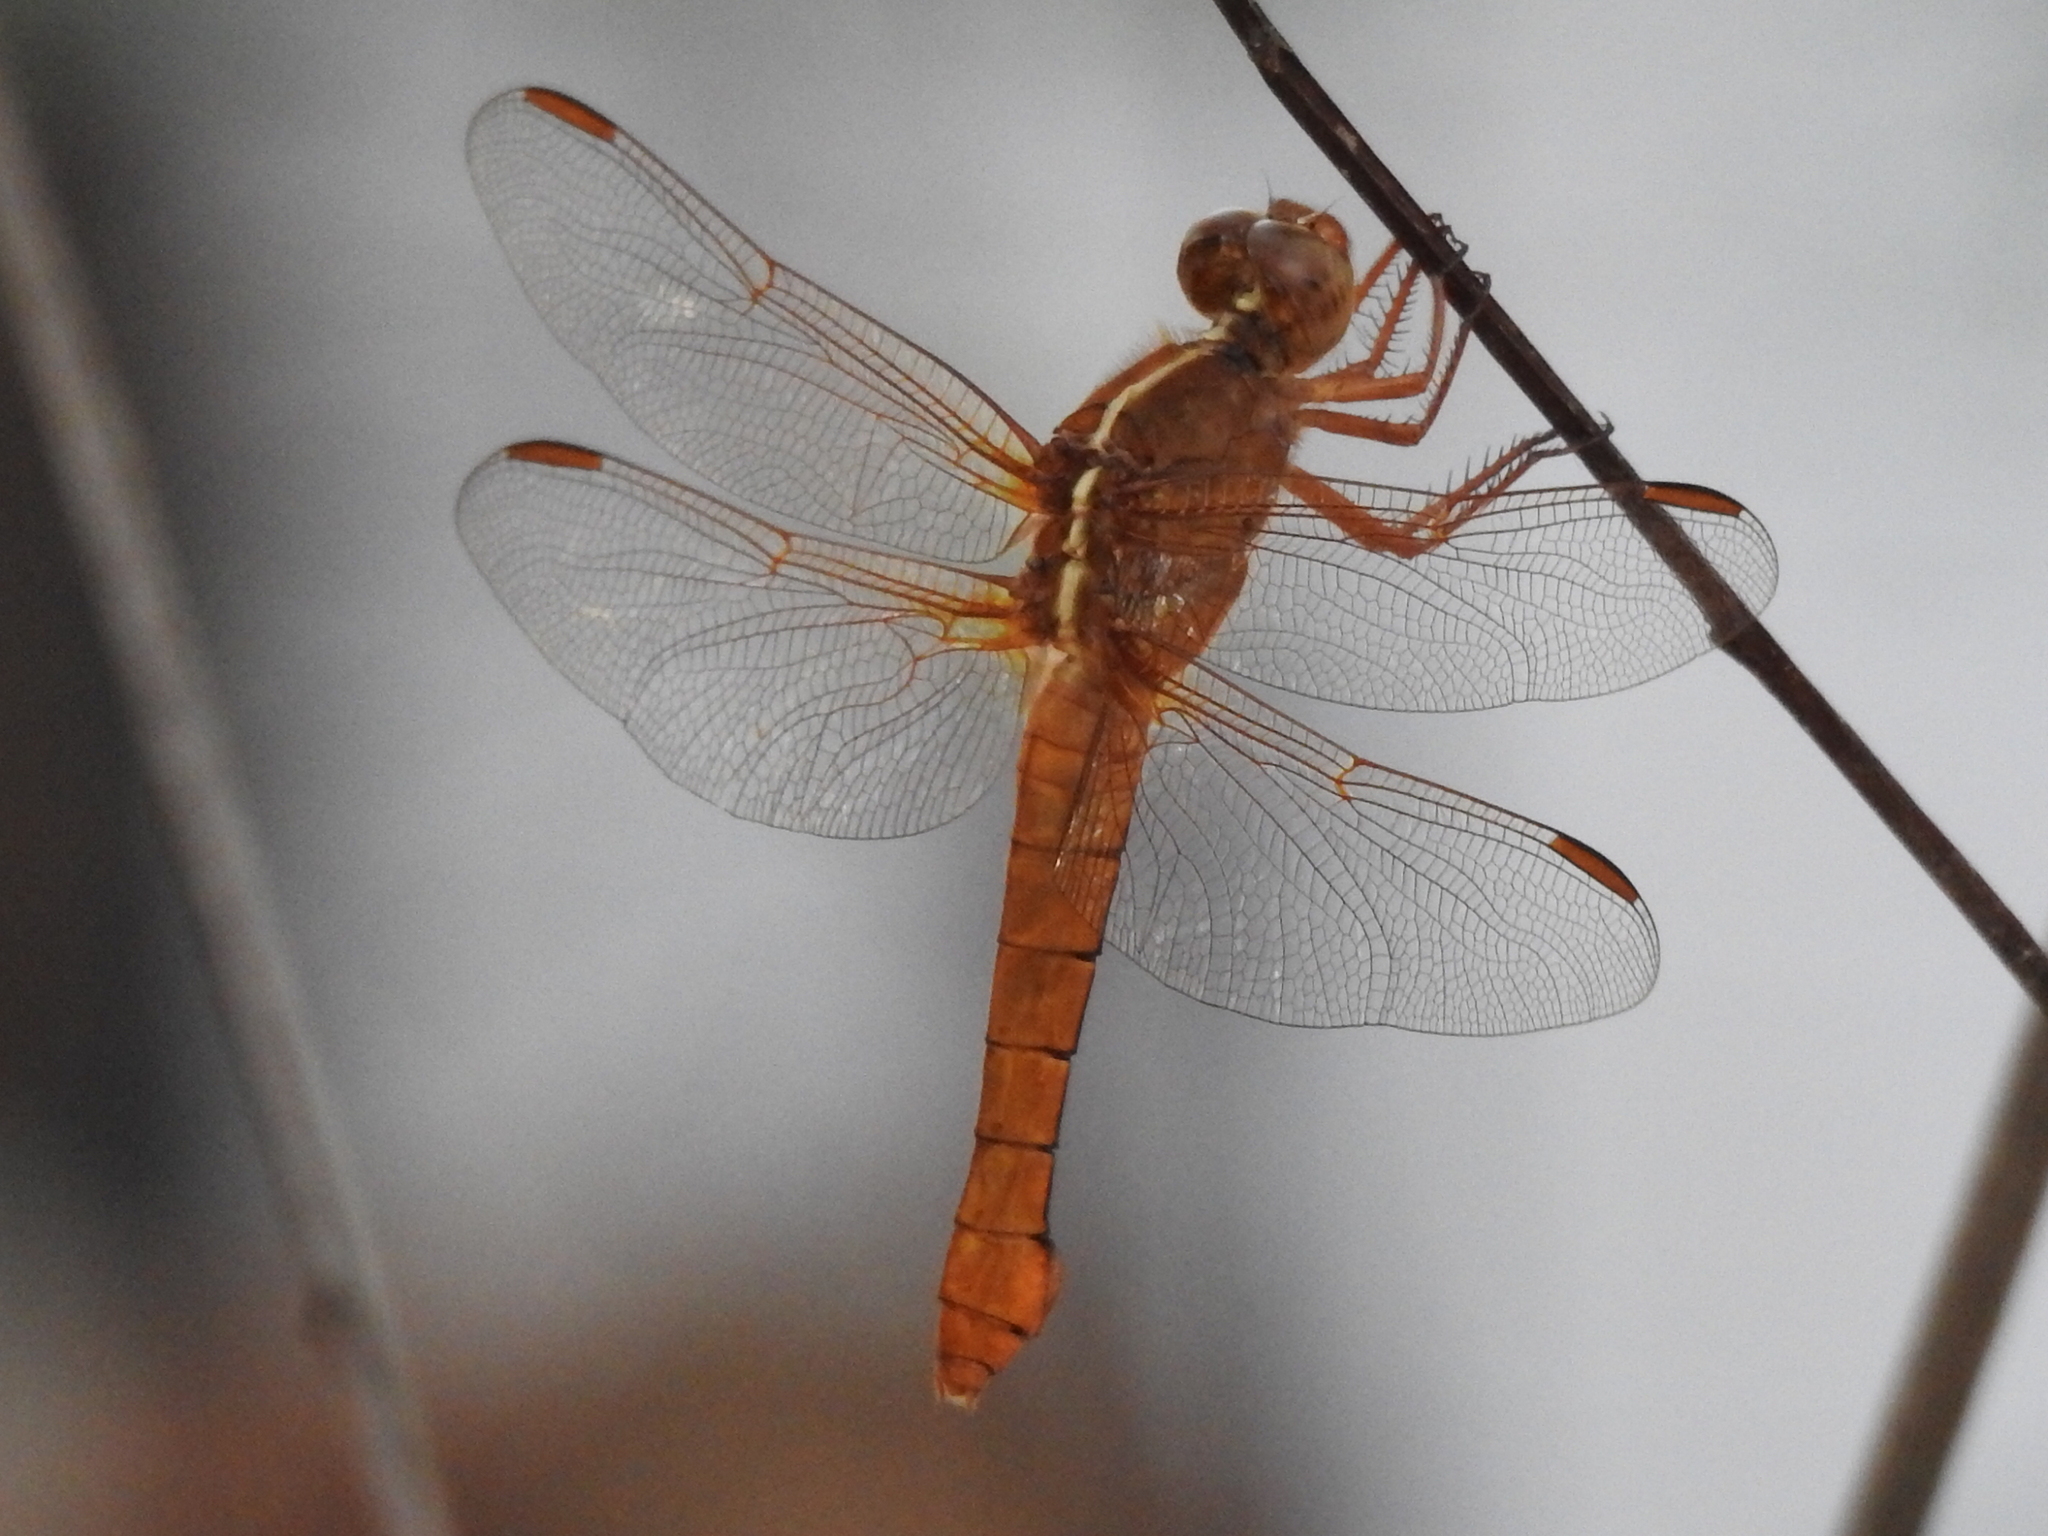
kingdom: Animalia
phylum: Arthropoda
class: Insecta
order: Odonata
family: Libellulidae
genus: Libellula
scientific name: Libellula croceipennis
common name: Neon skimmer
